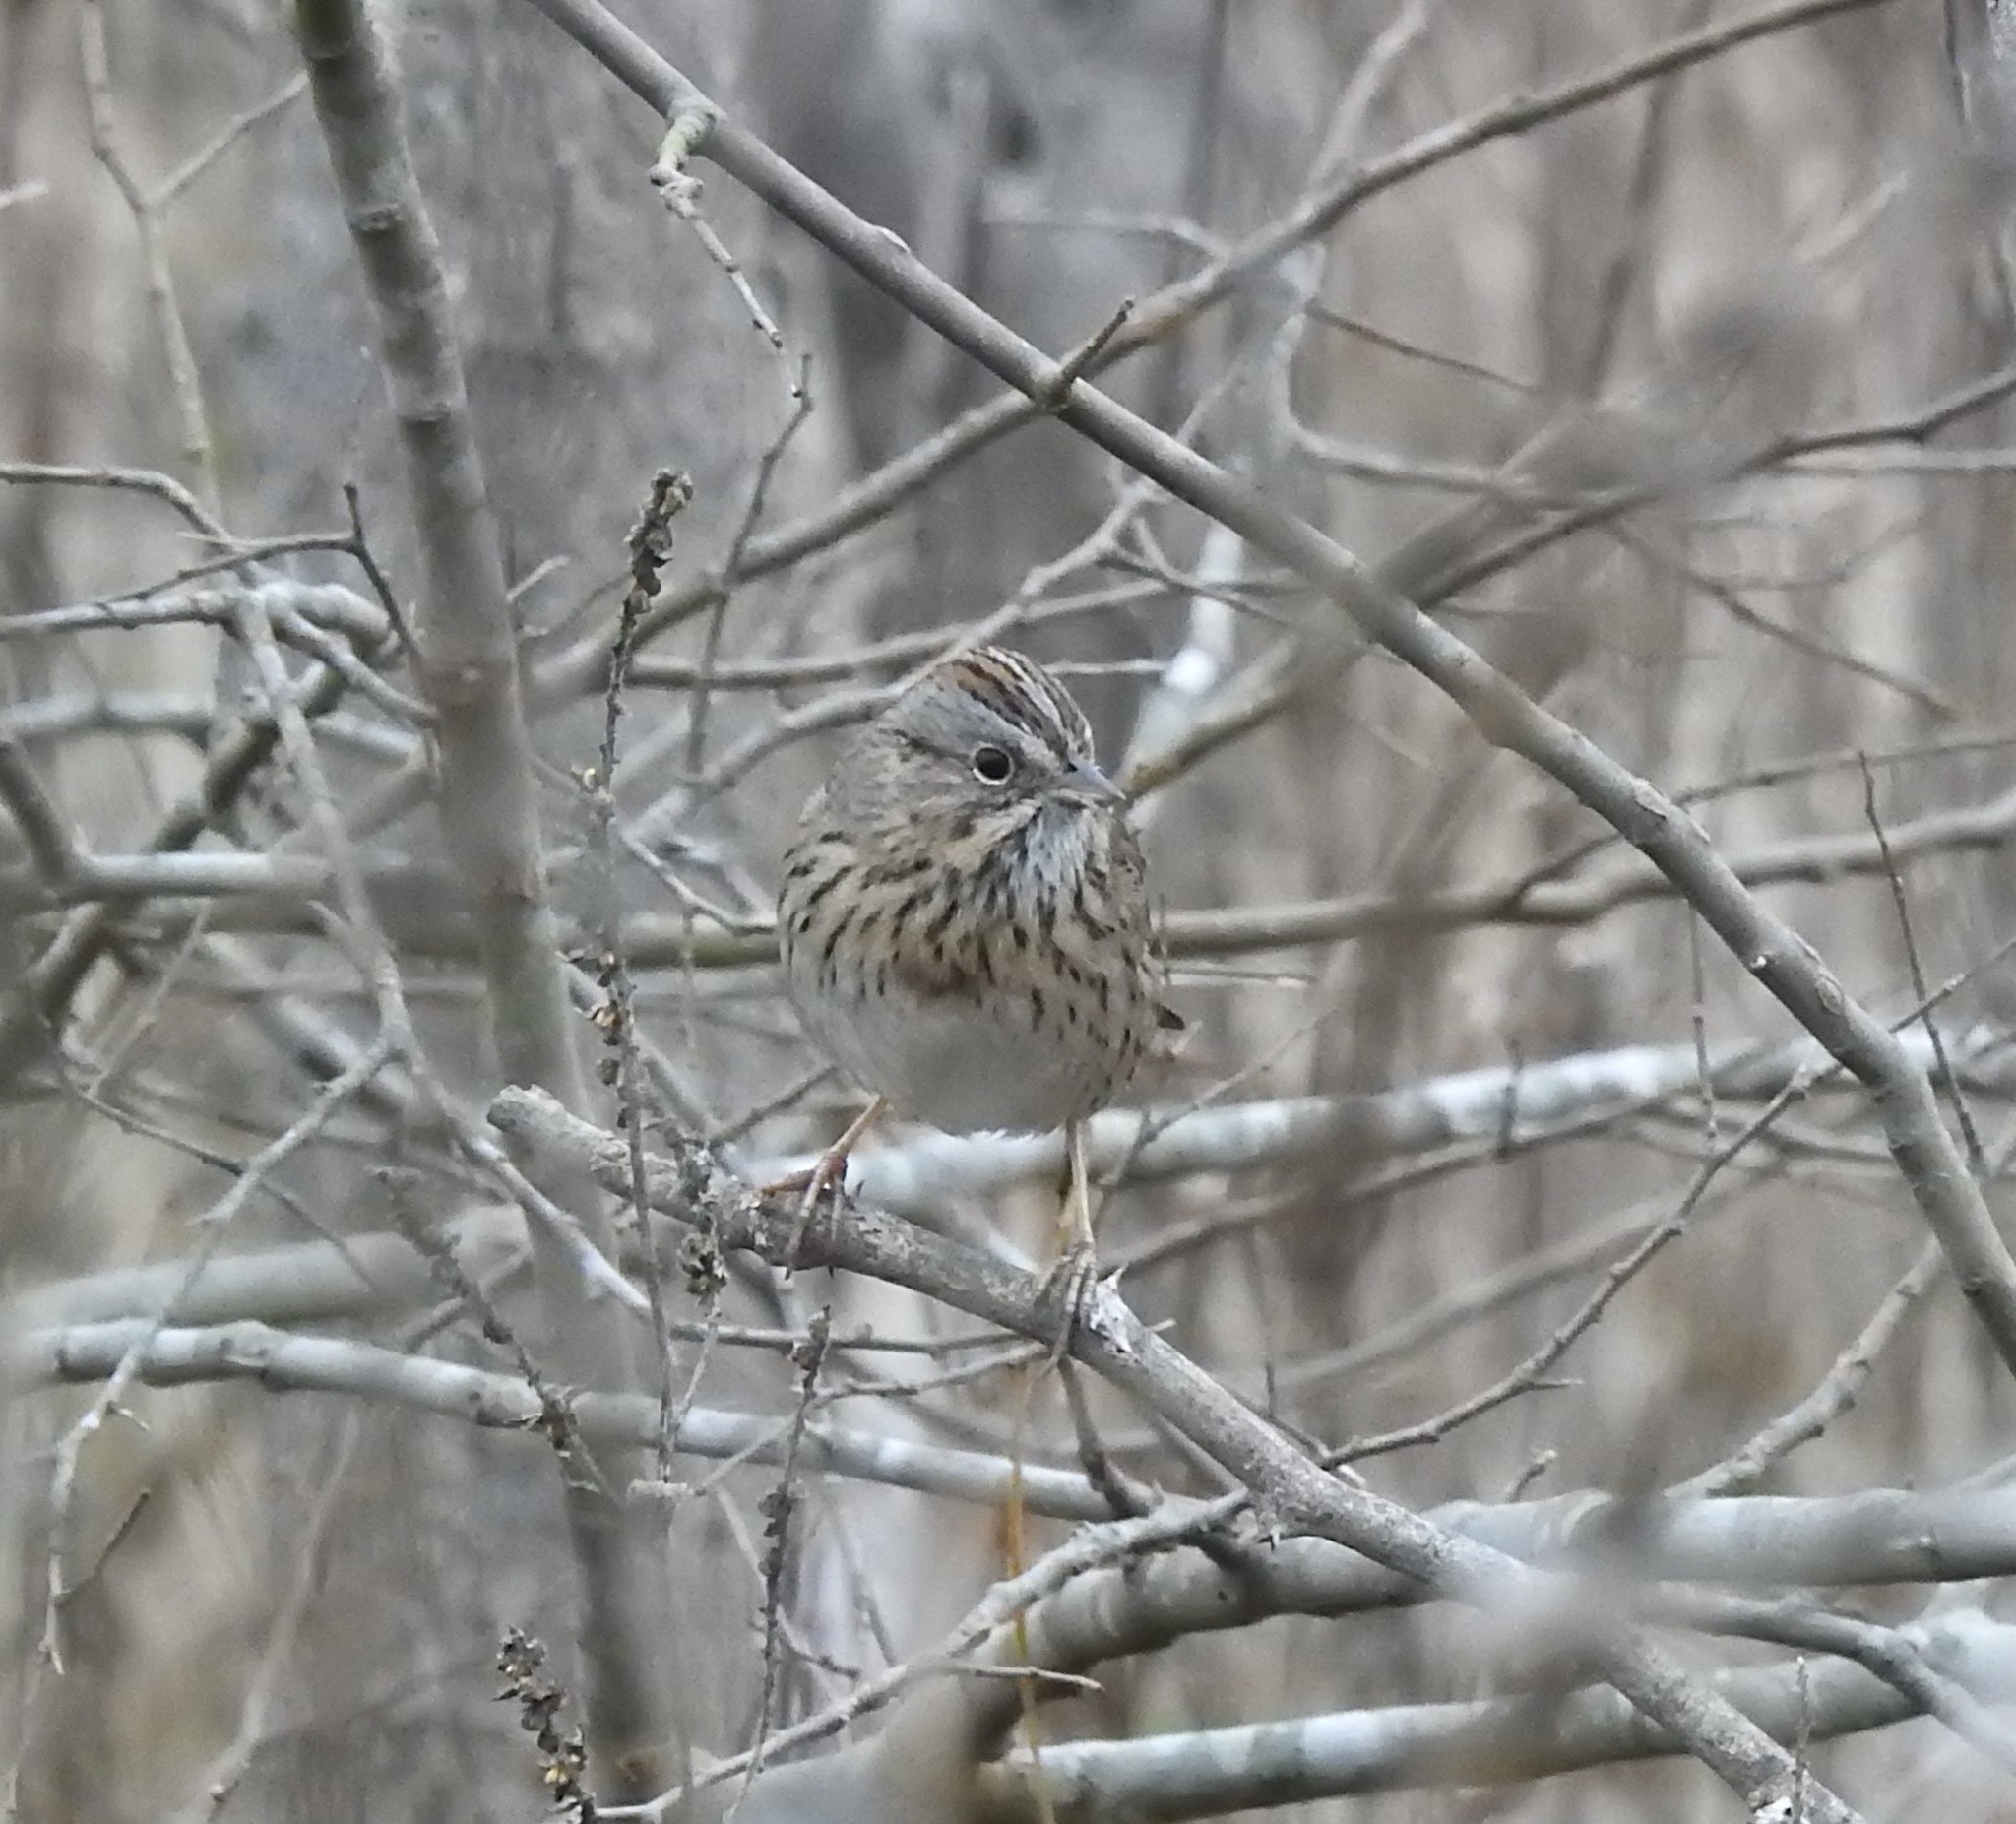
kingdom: Animalia
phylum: Chordata
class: Aves
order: Passeriformes
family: Passerellidae
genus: Melospiza
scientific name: Melospiza lincolnii
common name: Lincoln's sparrow
